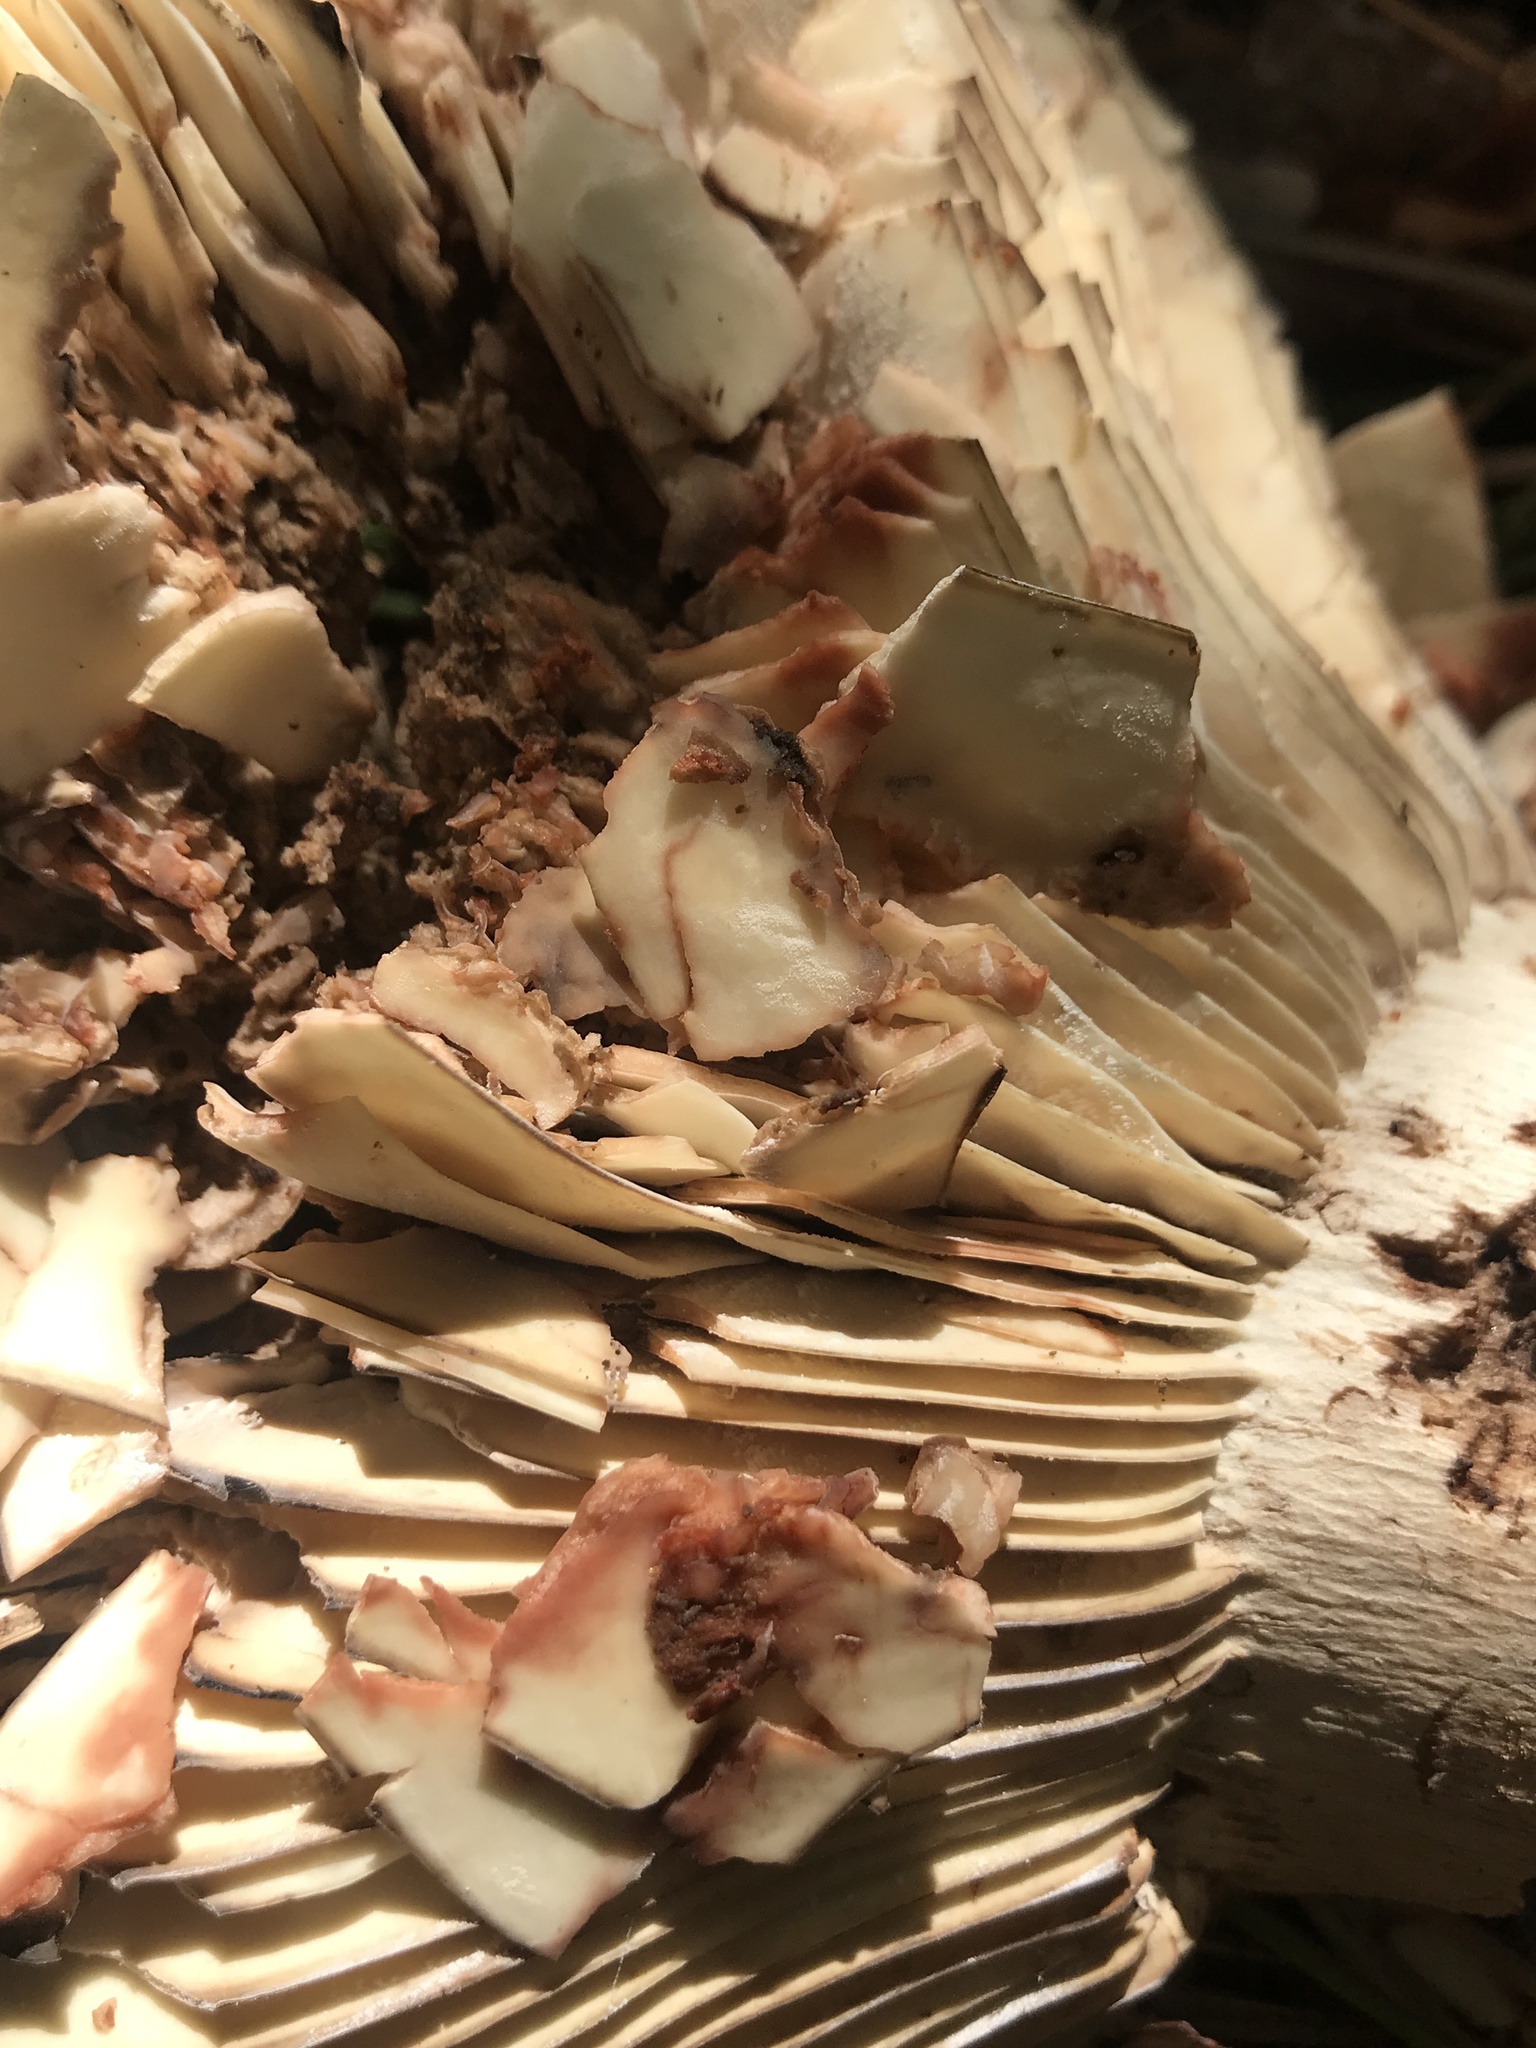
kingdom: Fungi
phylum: Basidiomycota
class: Agaricomycetes
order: Russulales
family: Russulaceae
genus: Russula
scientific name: Russula dissimulans
